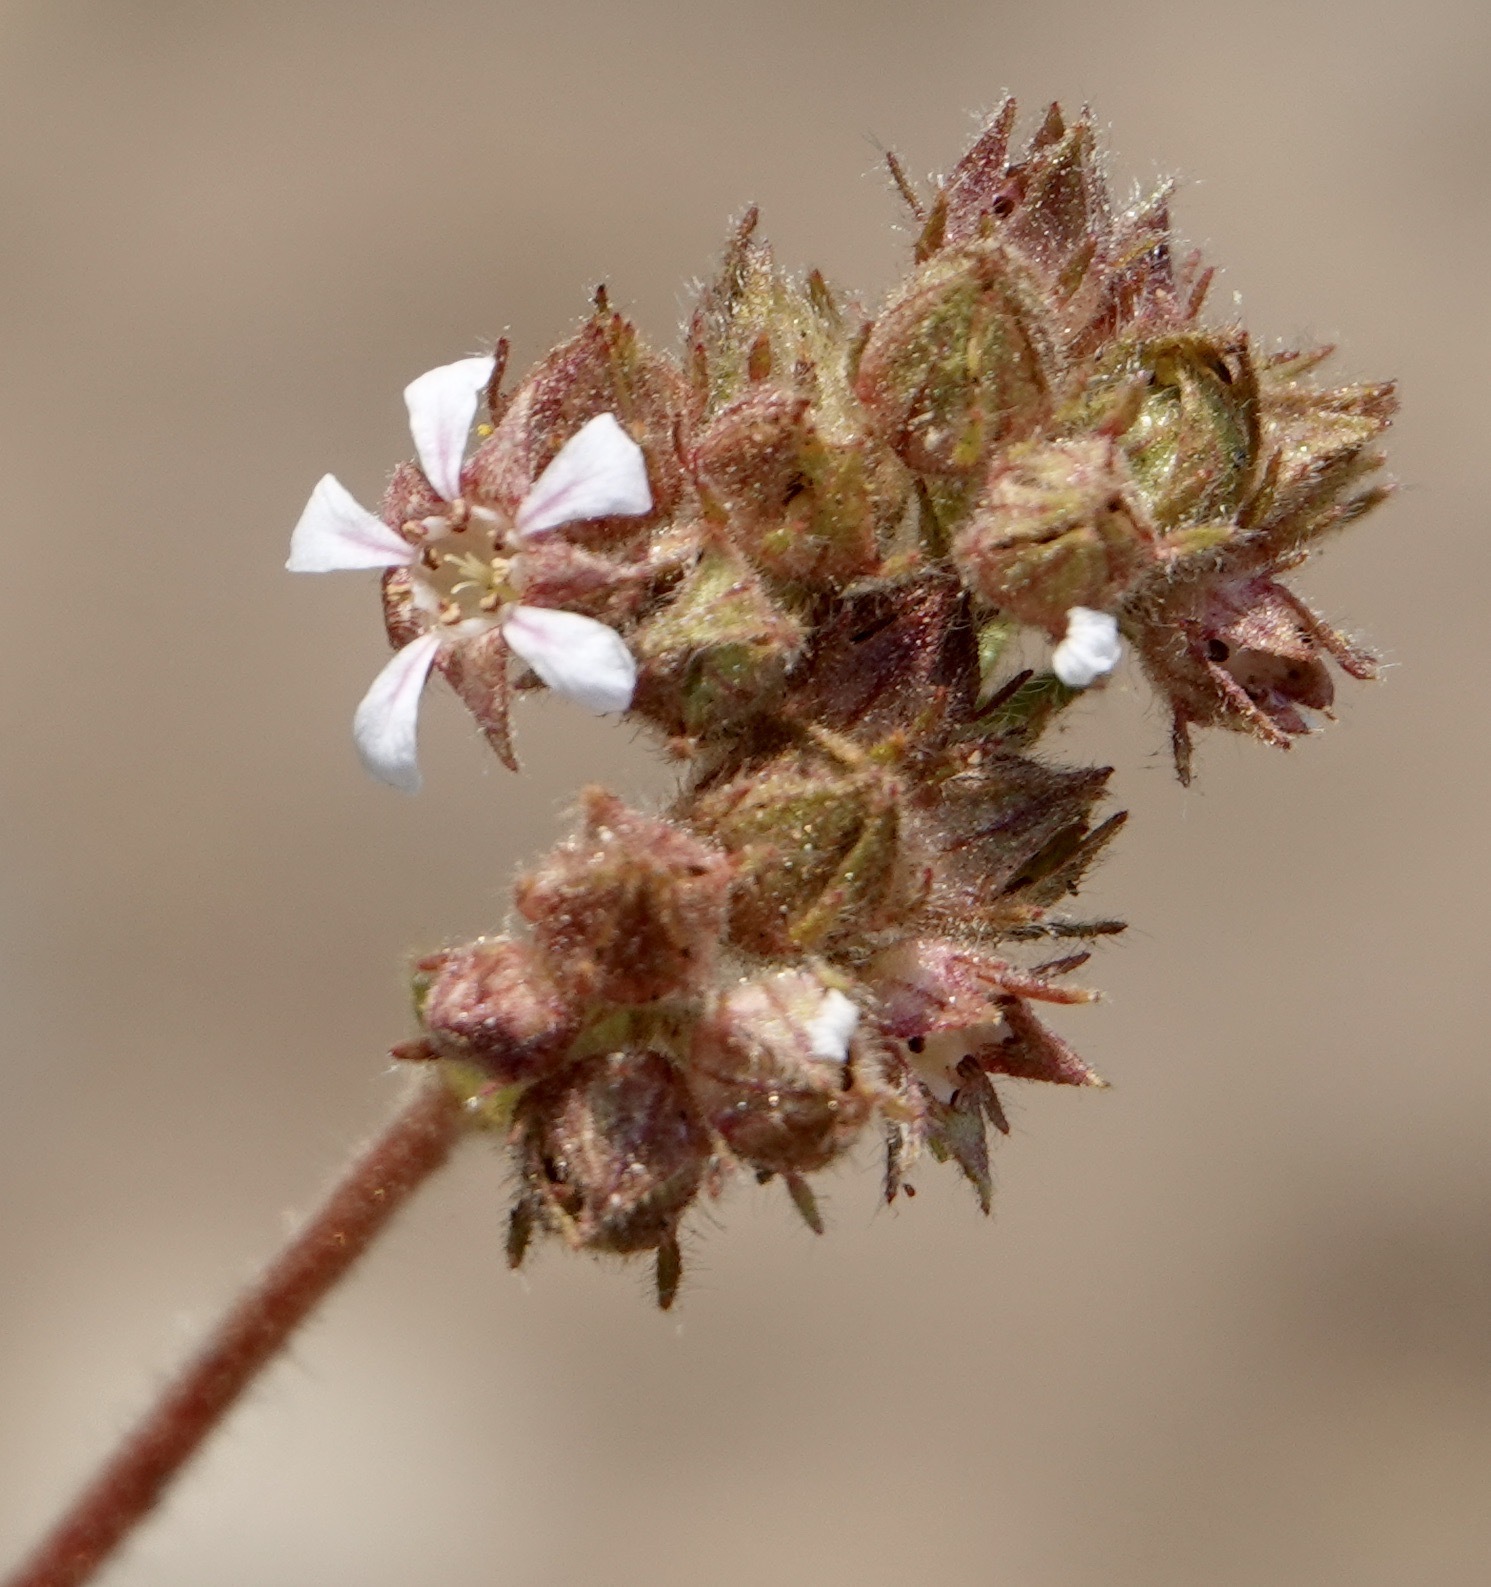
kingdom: Plantae
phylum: Tracheophyta
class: Magnoliopsida
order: Rosales
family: Rosaceae
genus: Potentilla
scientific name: Potentilla douglasii
